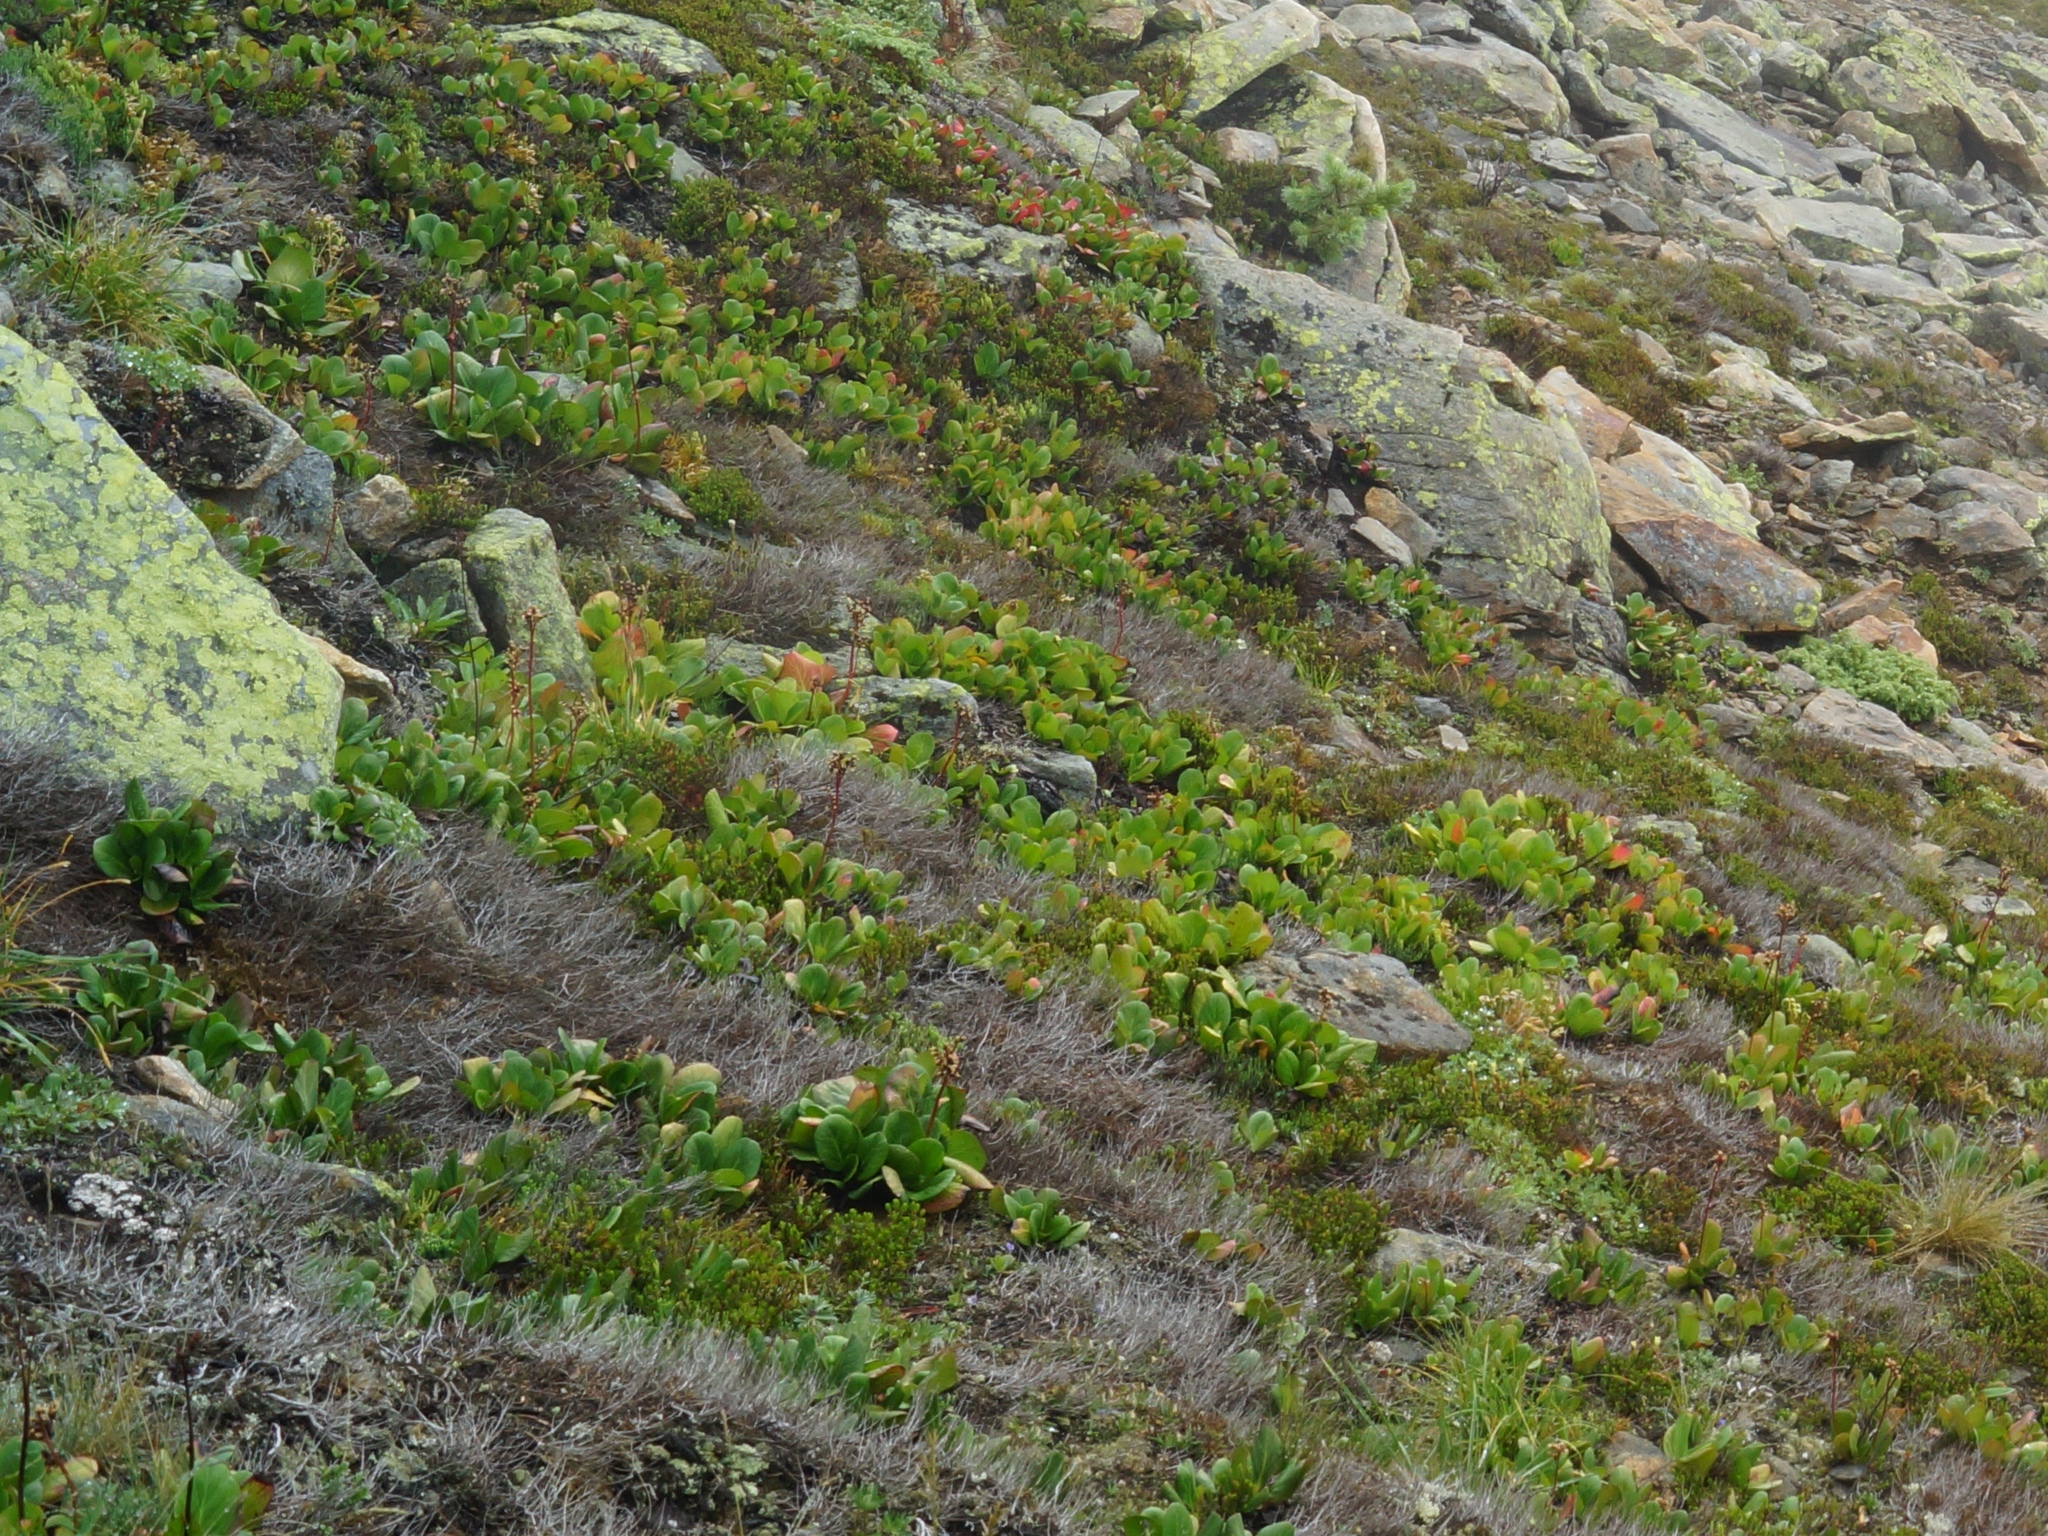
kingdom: Plantae
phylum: Tracheophyta
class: Magnoliopsida
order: Saxifragales
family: Saxifragaceae
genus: Bergenia
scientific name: Bergenia crassifolia
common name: Elephant-ears
